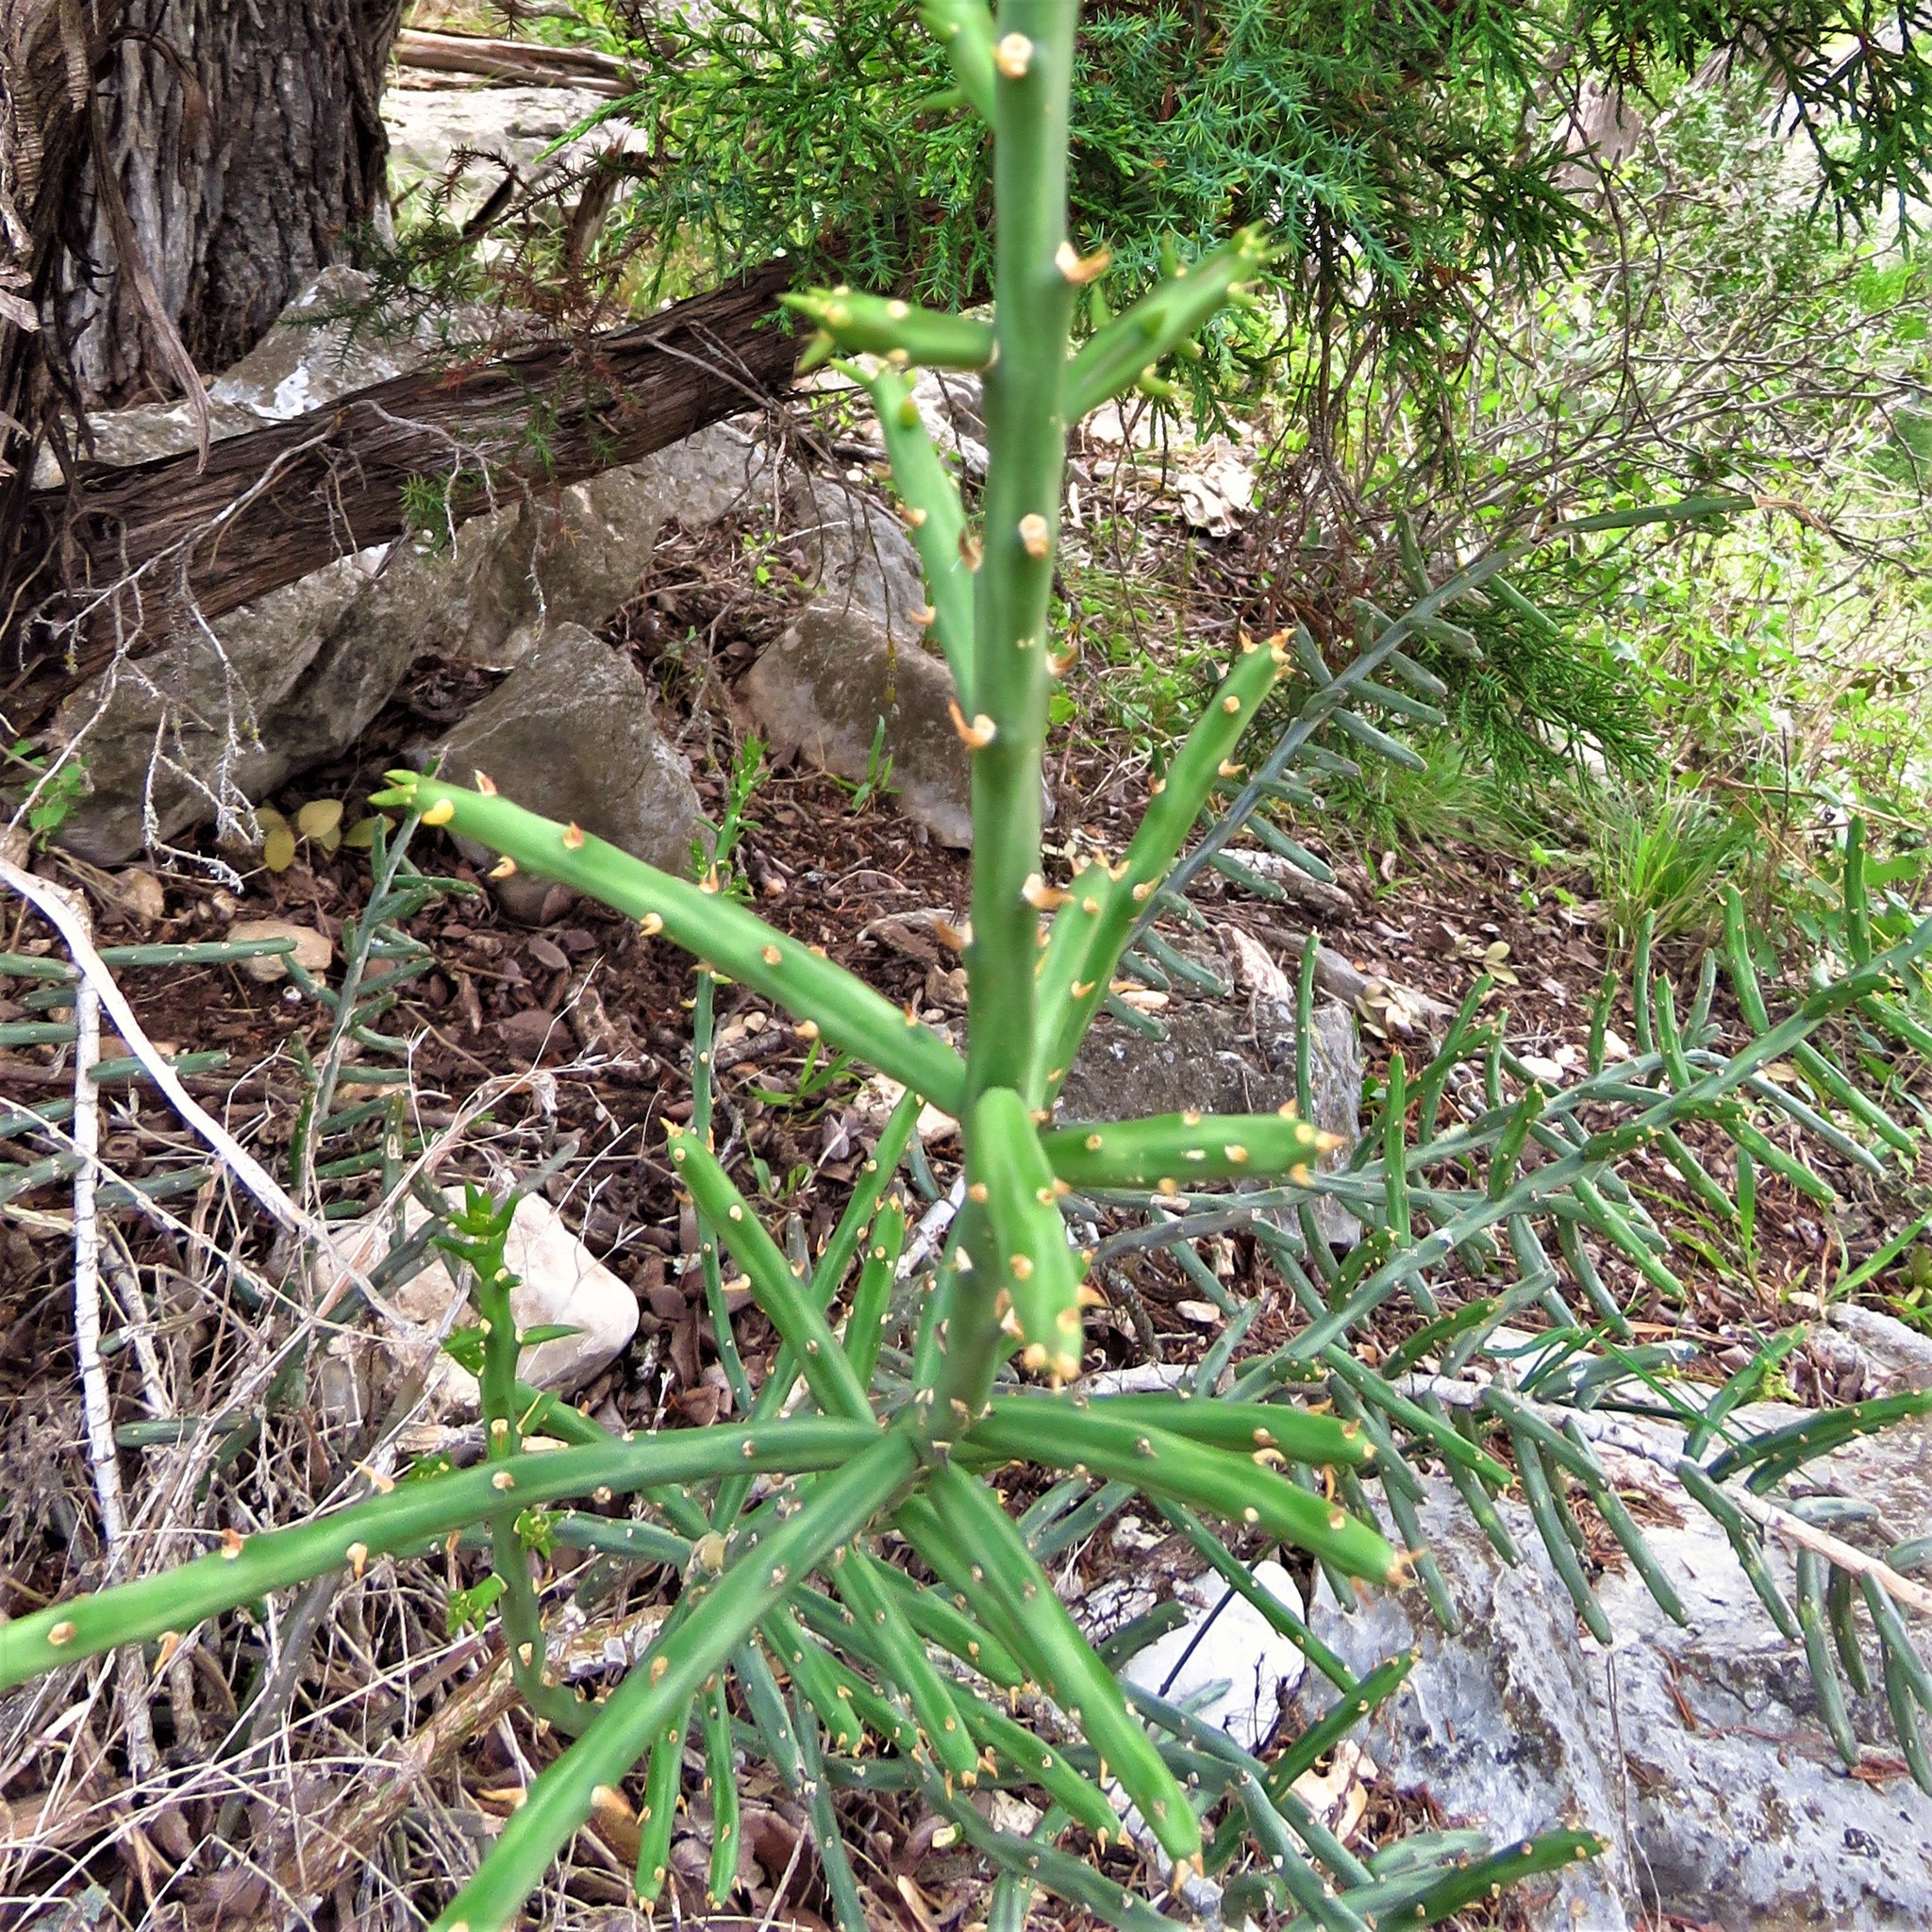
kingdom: Plantae
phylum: Tracheophyta
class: Magnoliopsida
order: Caryophyllales
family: Cactaceae
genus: Cylindropuntia
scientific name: Cylindropuntia leptocaulis
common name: Christmas cactus
